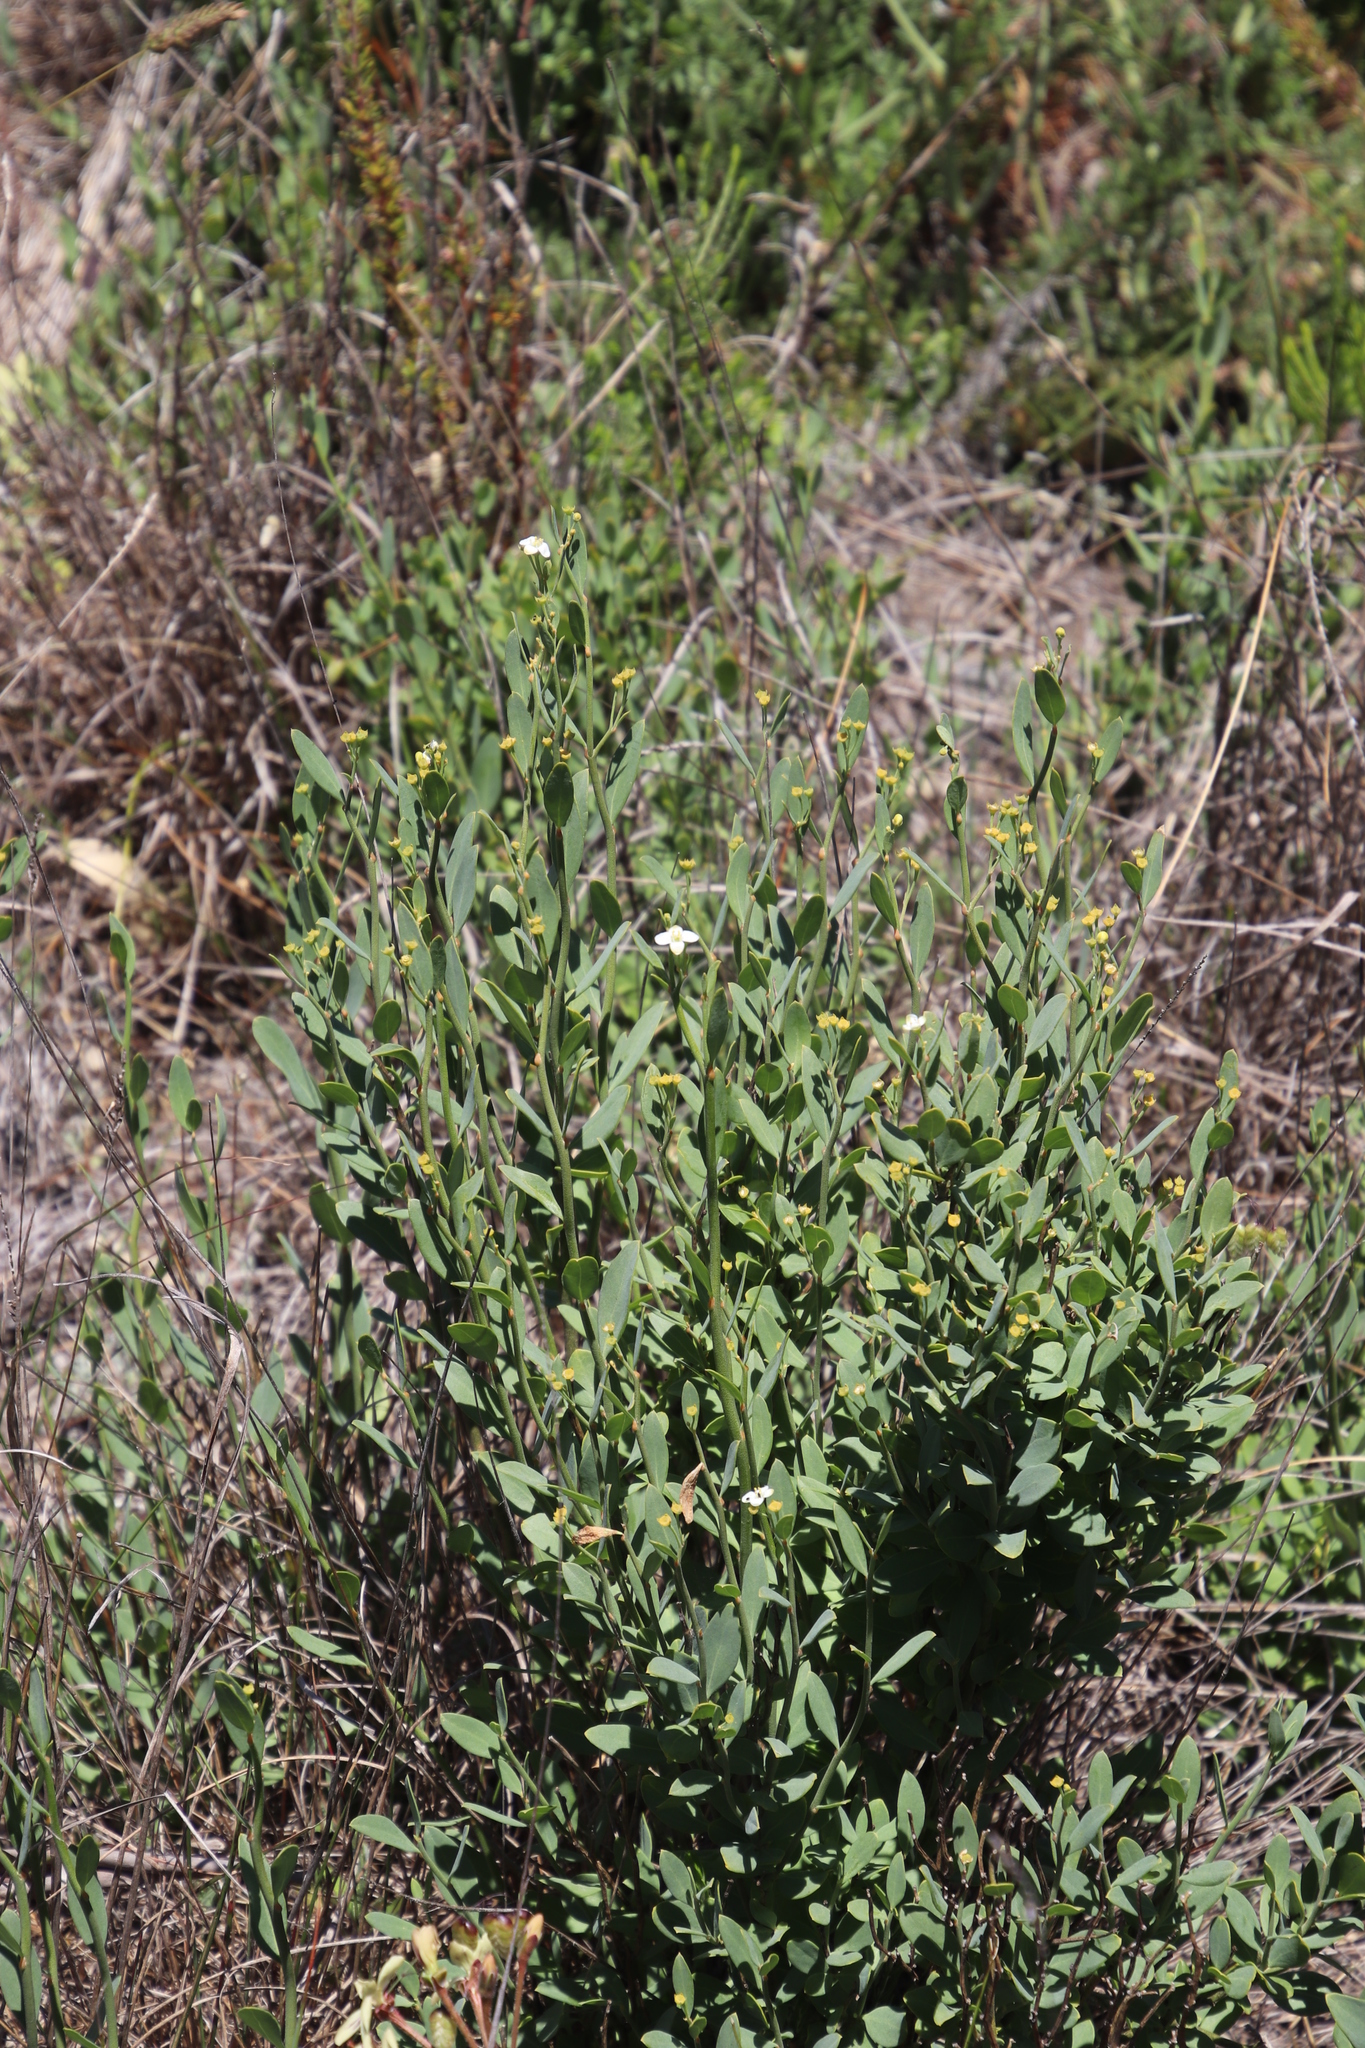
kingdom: Plantae
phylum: Tracheophyta
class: Magnoliopsida
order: Solanales
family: Montiniaceae
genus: Montinia
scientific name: Montinia caryophyllacea
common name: Wild clove-bush
